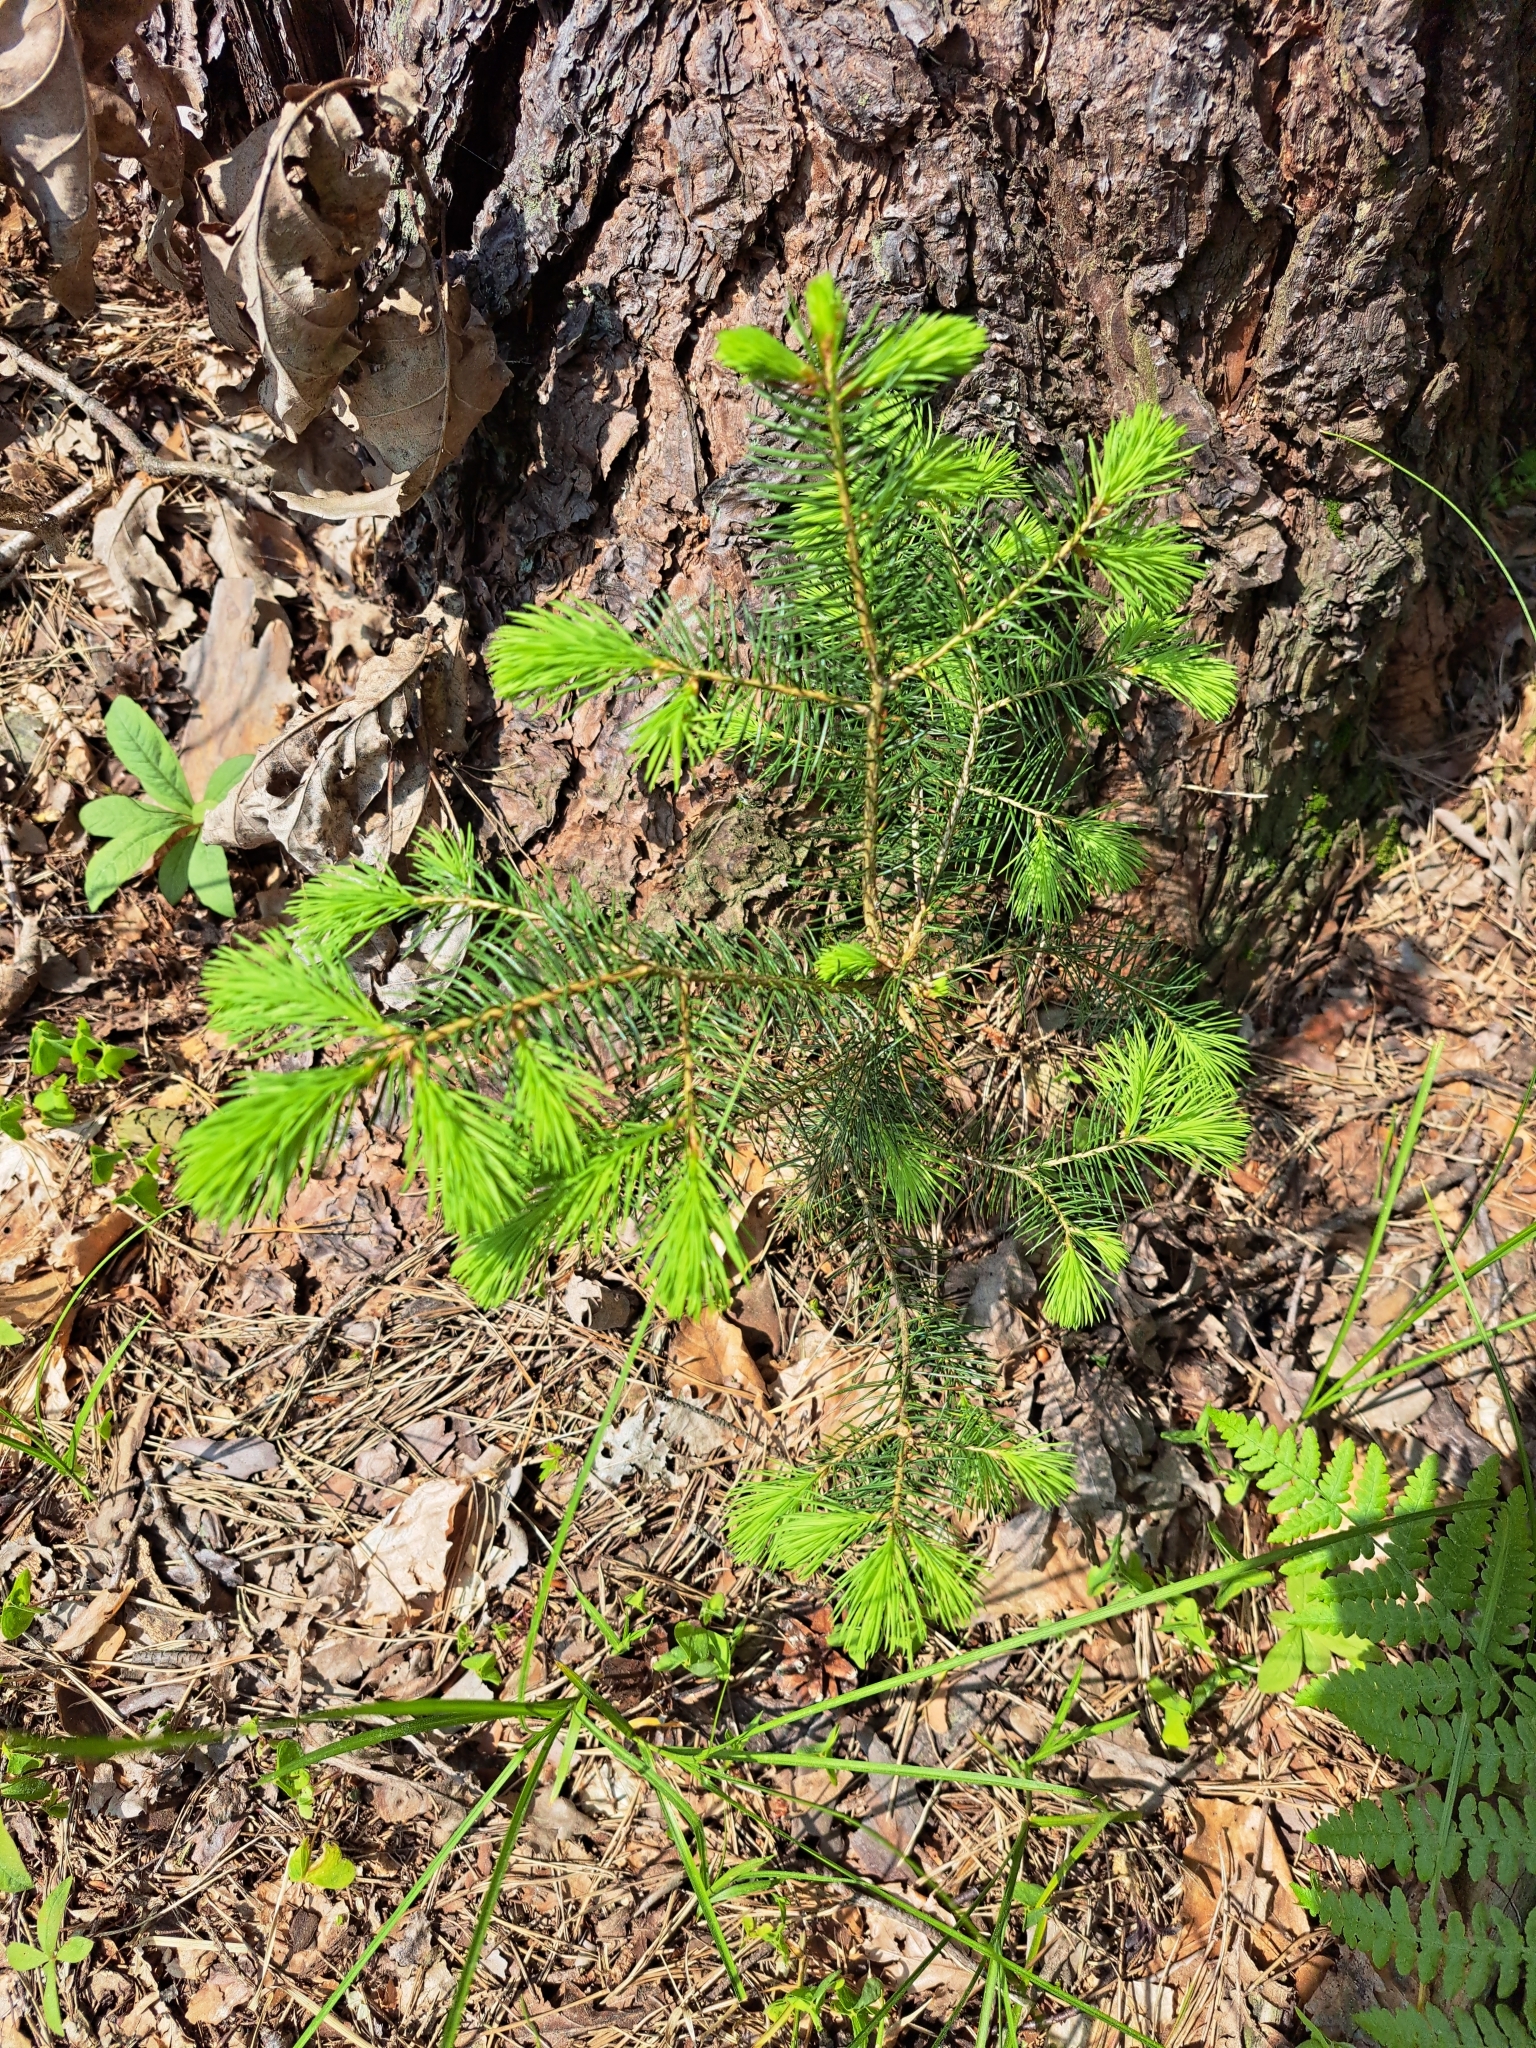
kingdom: Plantae
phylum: Tracheophyta
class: Pinopsida
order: Pinales
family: Pinaceae
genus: Picea
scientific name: Picea abies
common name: Norway spruce
